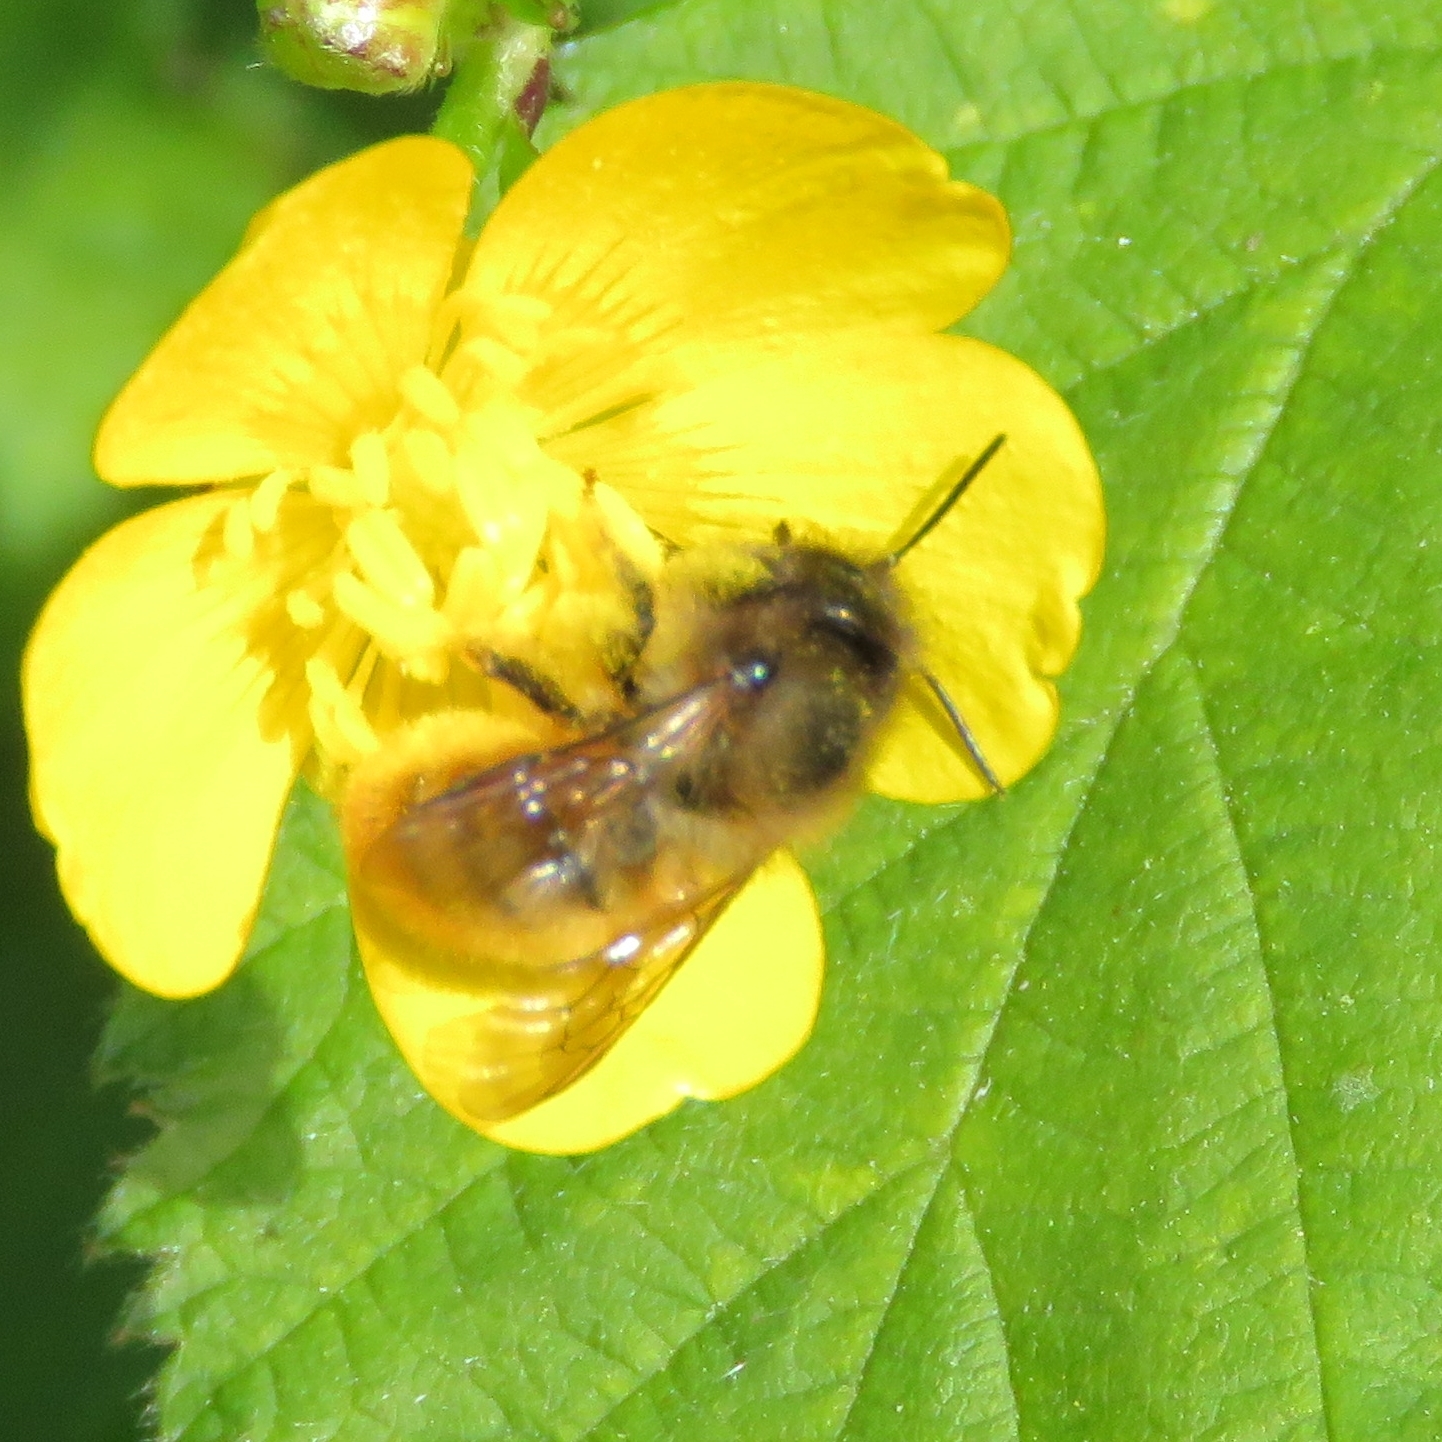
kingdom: Animalia
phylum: Arthropoda
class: Insecta
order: Hymenoptera
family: Megachilidae
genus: Osmia
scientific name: Osmia bicornis
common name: Red mason bee
